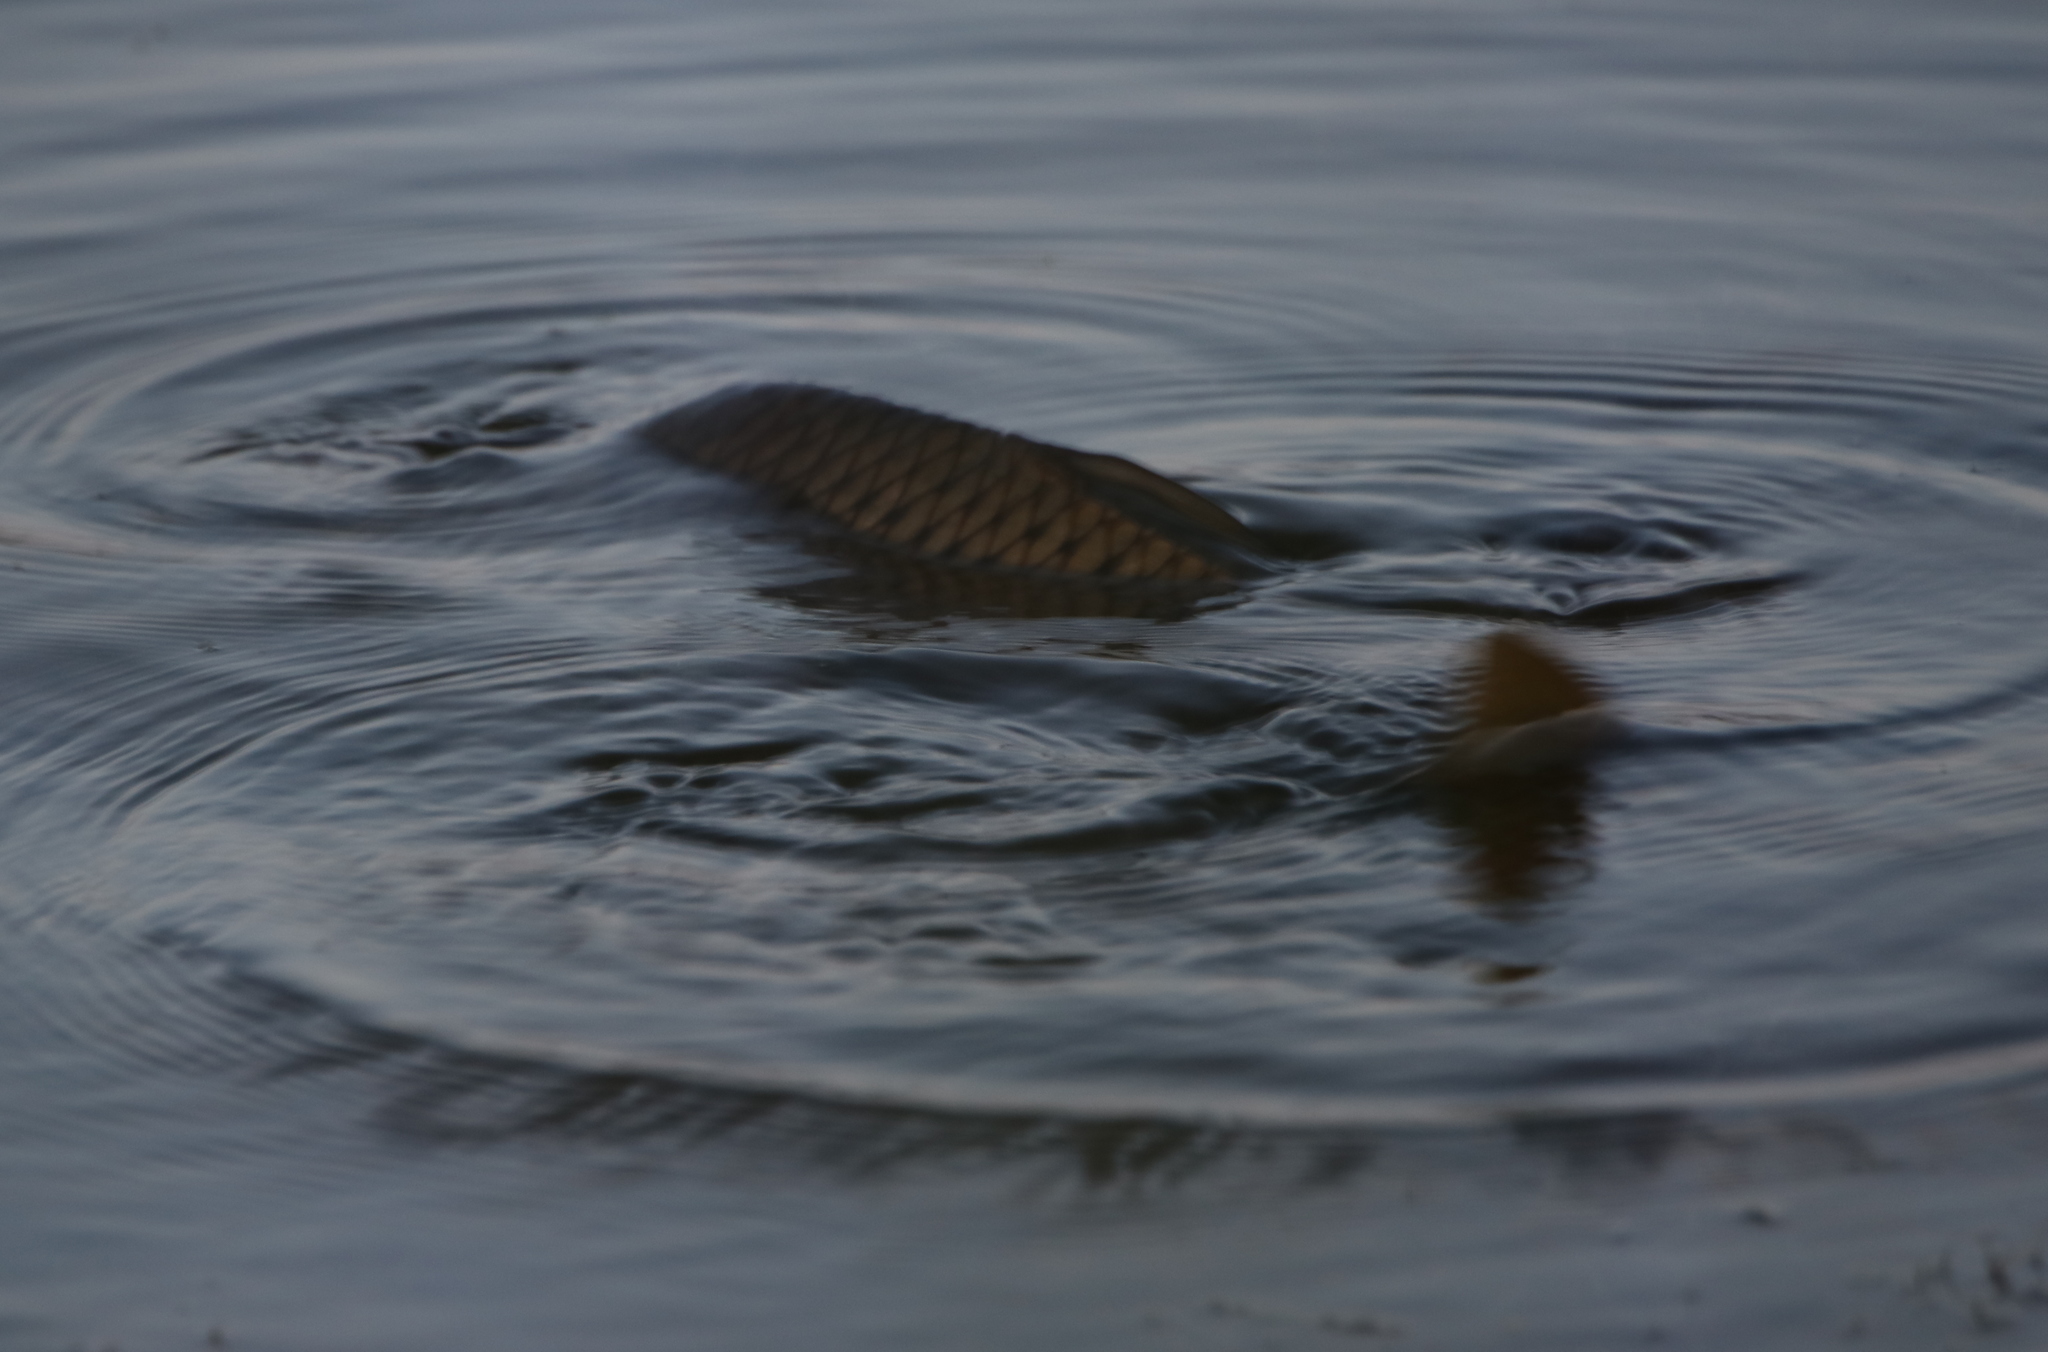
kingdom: Animalia
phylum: Chordata
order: Cypriniformes
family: Cyprinidae
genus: Cyprinus
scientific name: Cyprinus carpio
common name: Common carp
